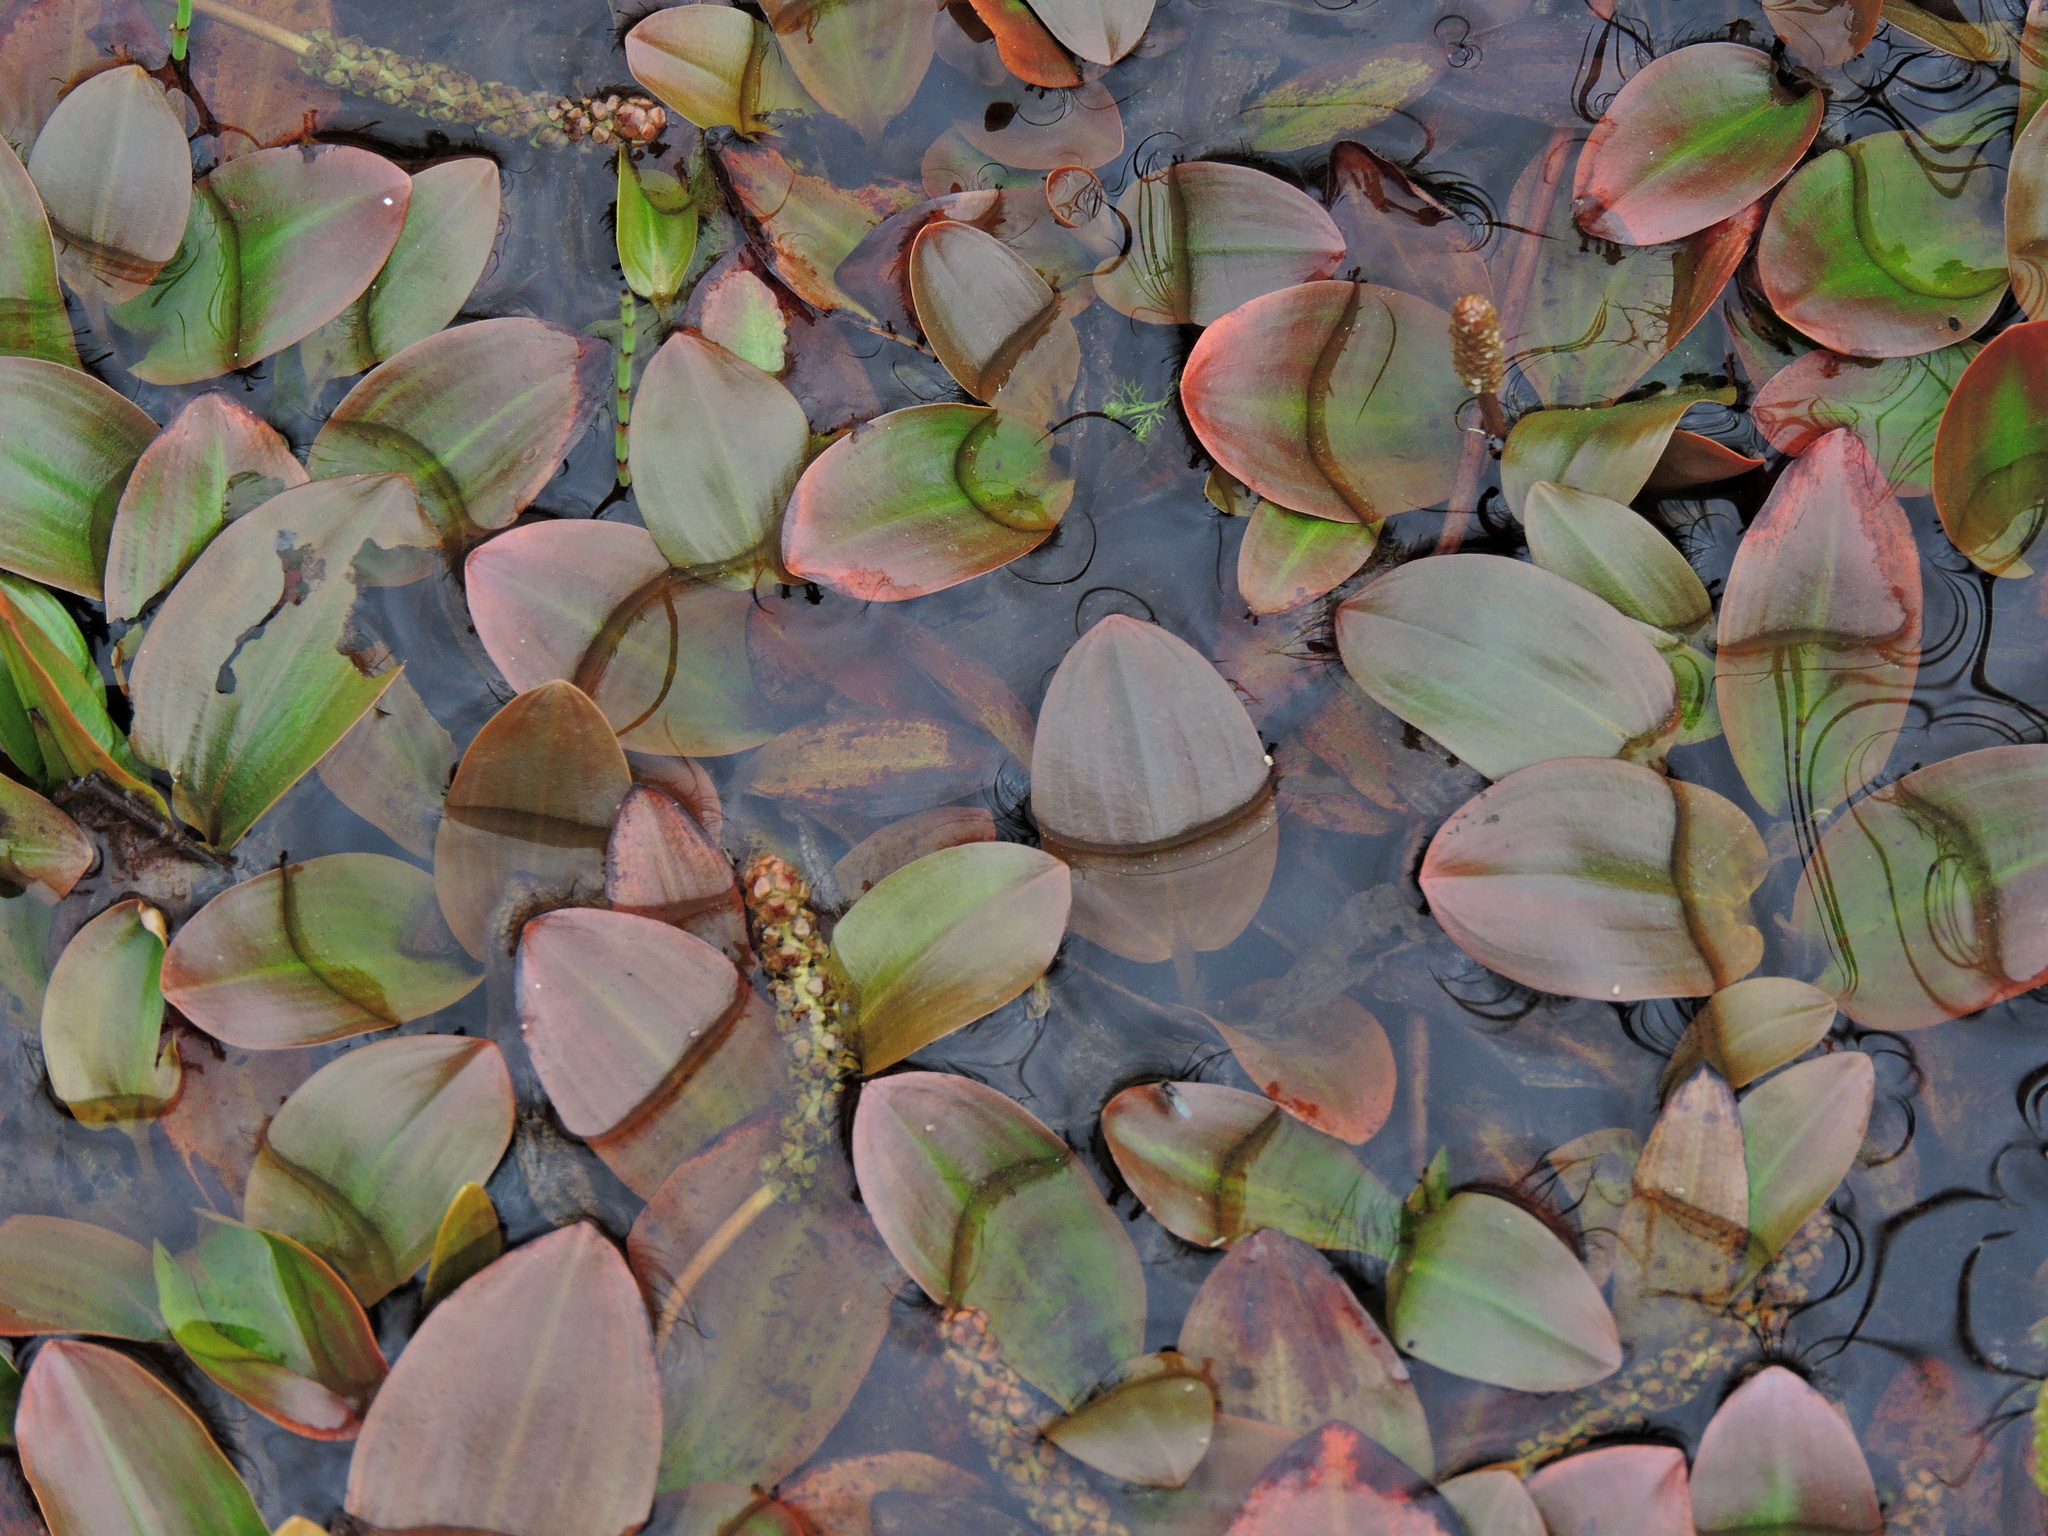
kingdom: Plantae
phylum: Tracheophyta
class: Liliopsida
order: Alismatales
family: Potamogetonaceae
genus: Potamogeton
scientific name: Potamogeton polygonifolius
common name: Bog pondweed
